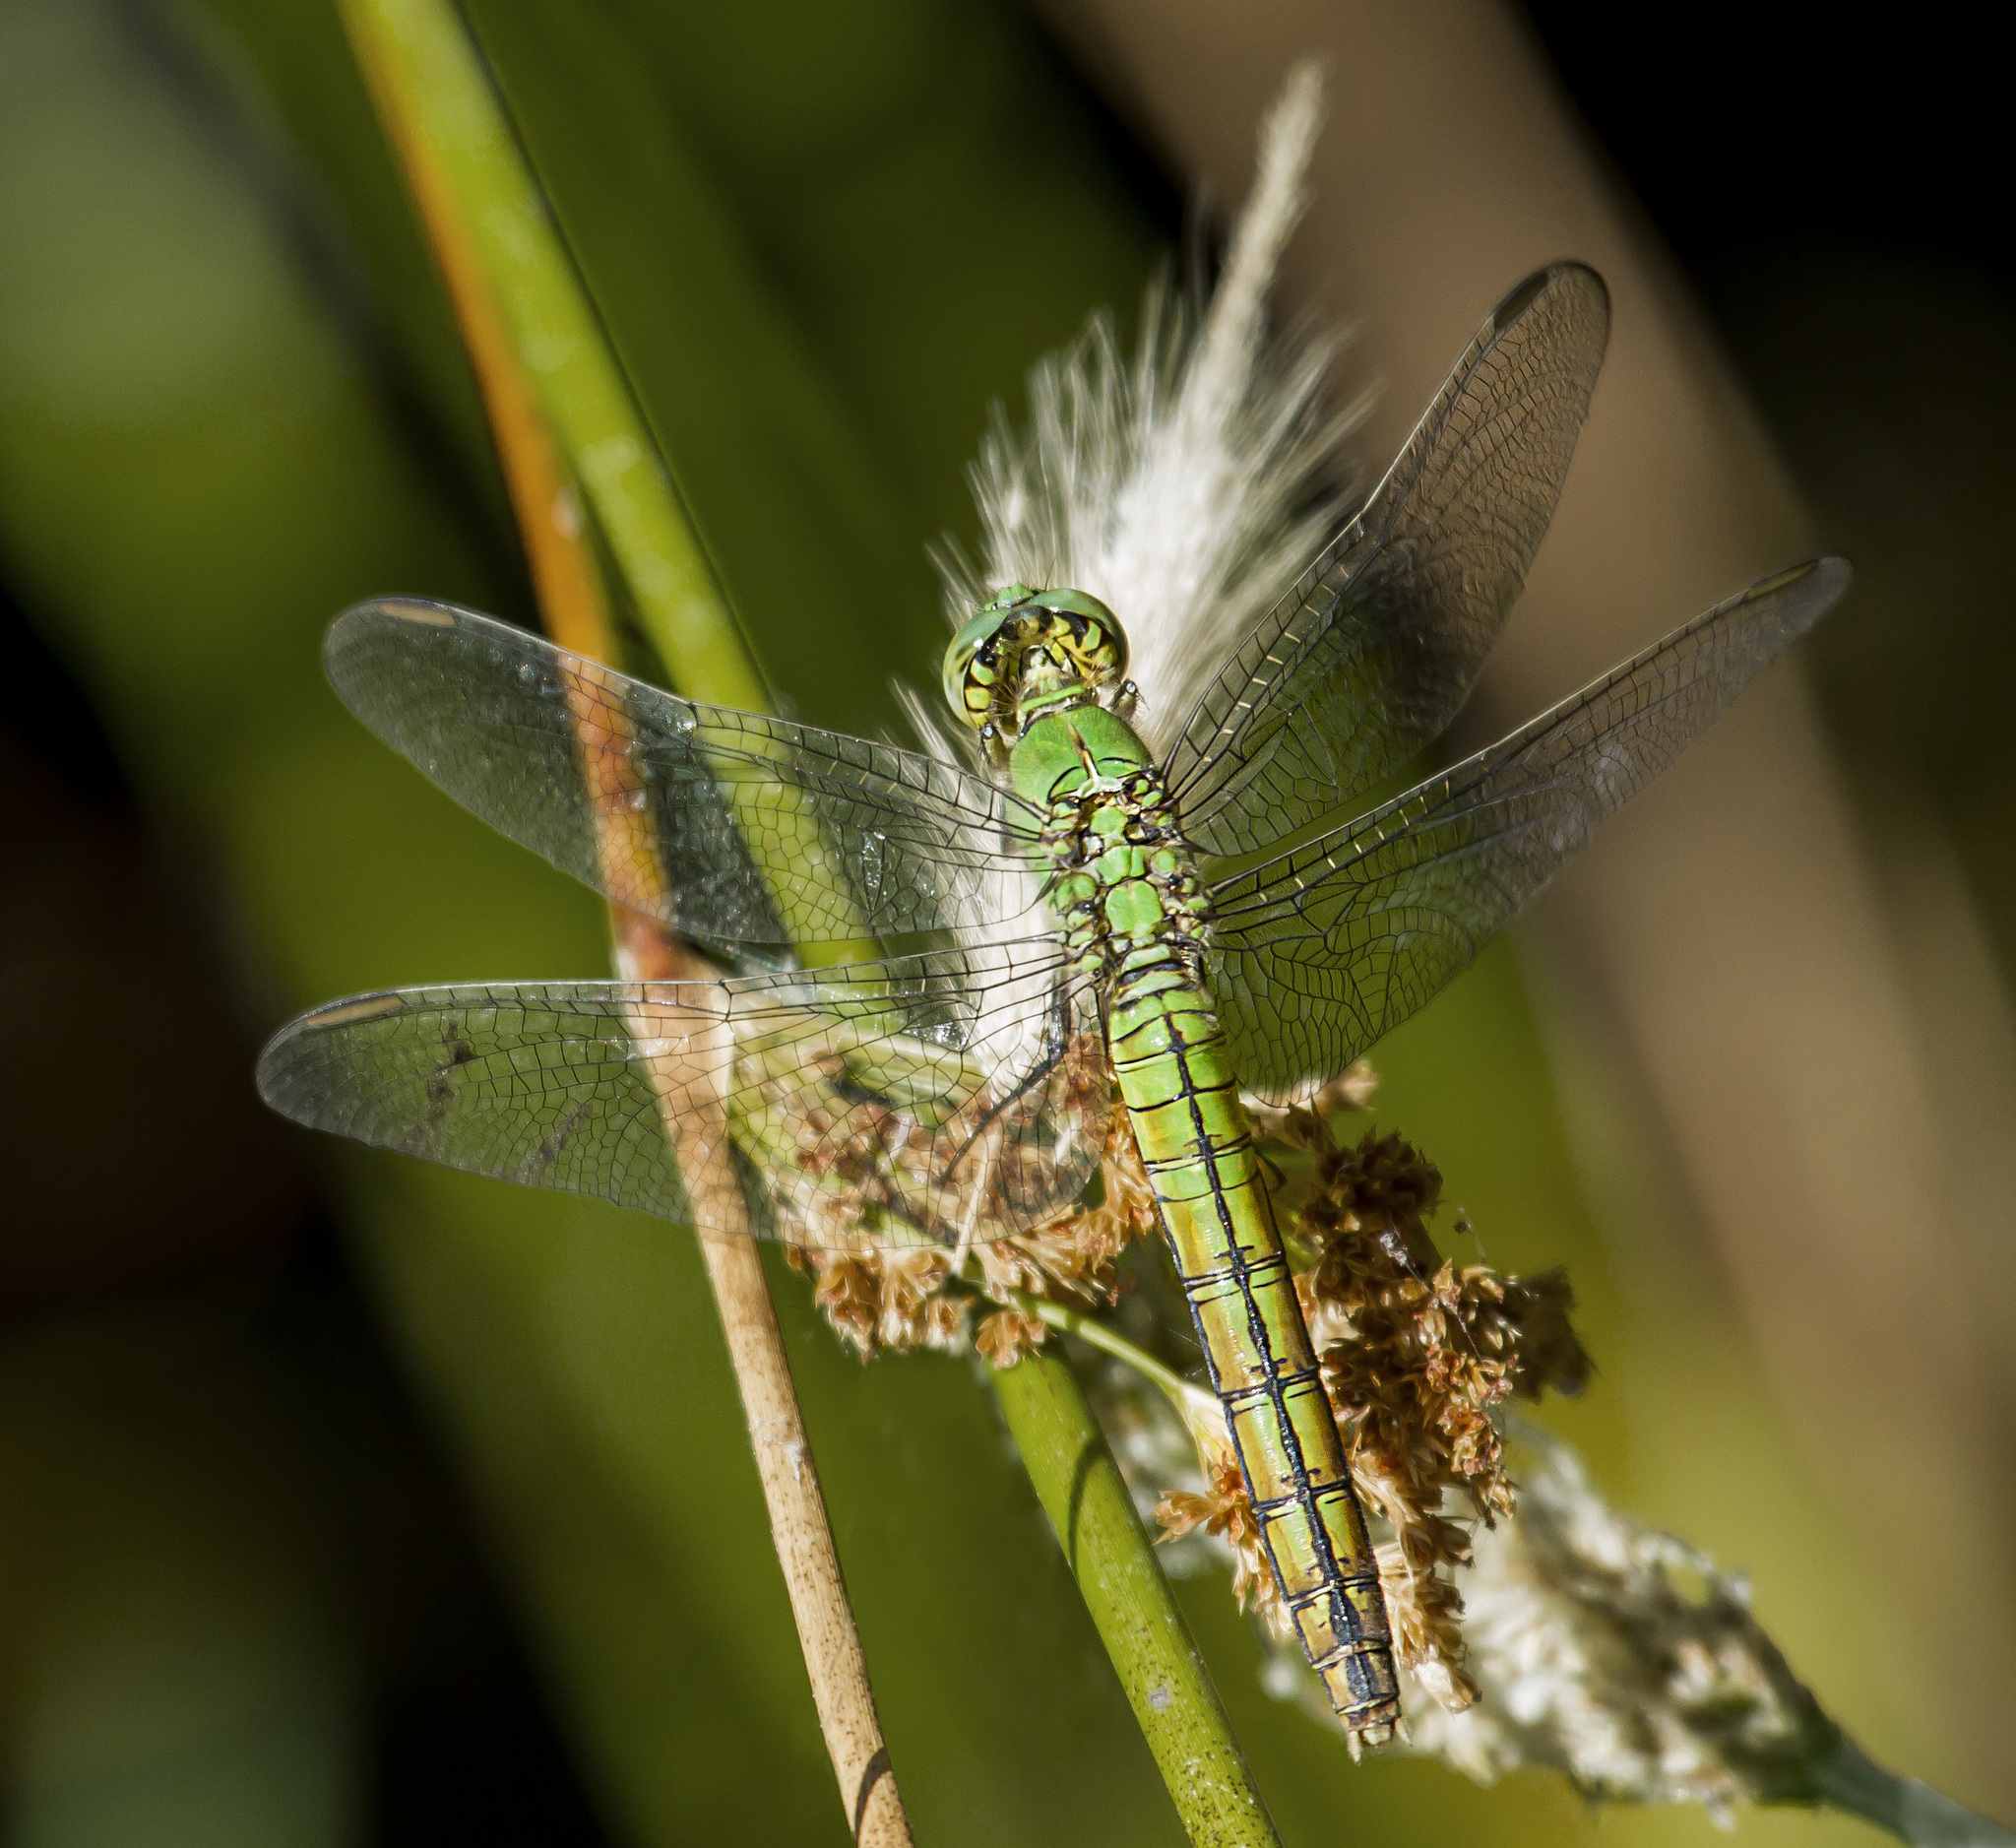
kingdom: Animalia
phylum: Arthropoda
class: Insecta
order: Odonata
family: Libellulidae
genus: Erythemis
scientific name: Erythemis collocata
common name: Western pondhawk
